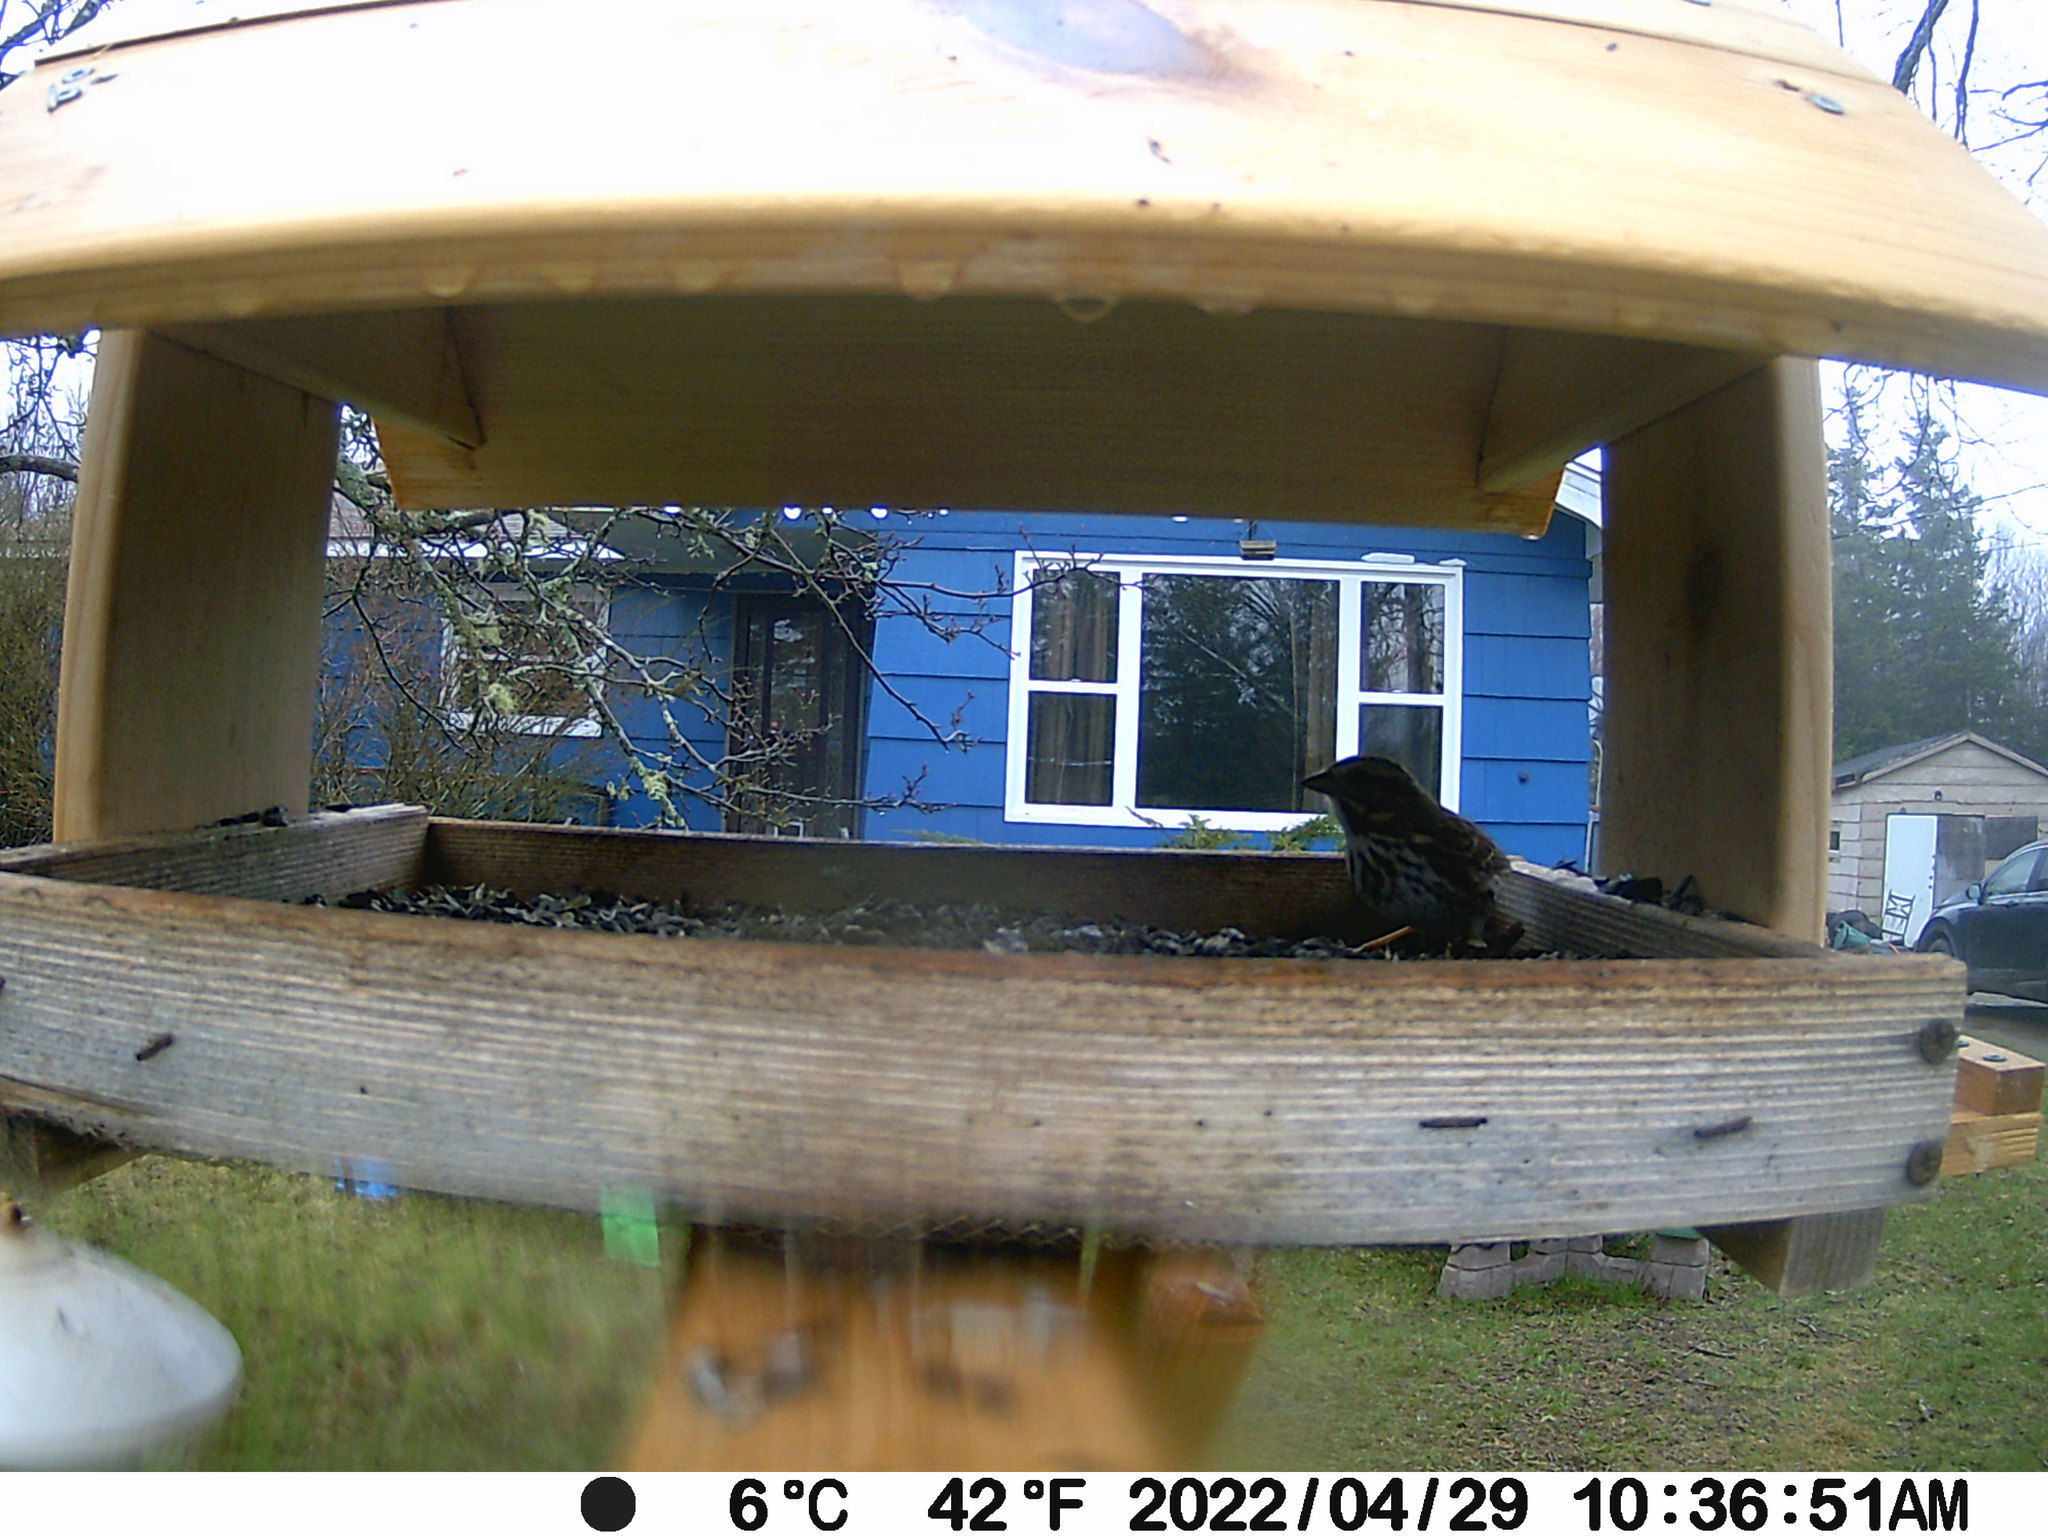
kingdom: Animalia
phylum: Chordata
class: Aves
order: Passeriformes
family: Passerellidae
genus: Melospiza
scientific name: Melospiza melodia
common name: Song sparrow
